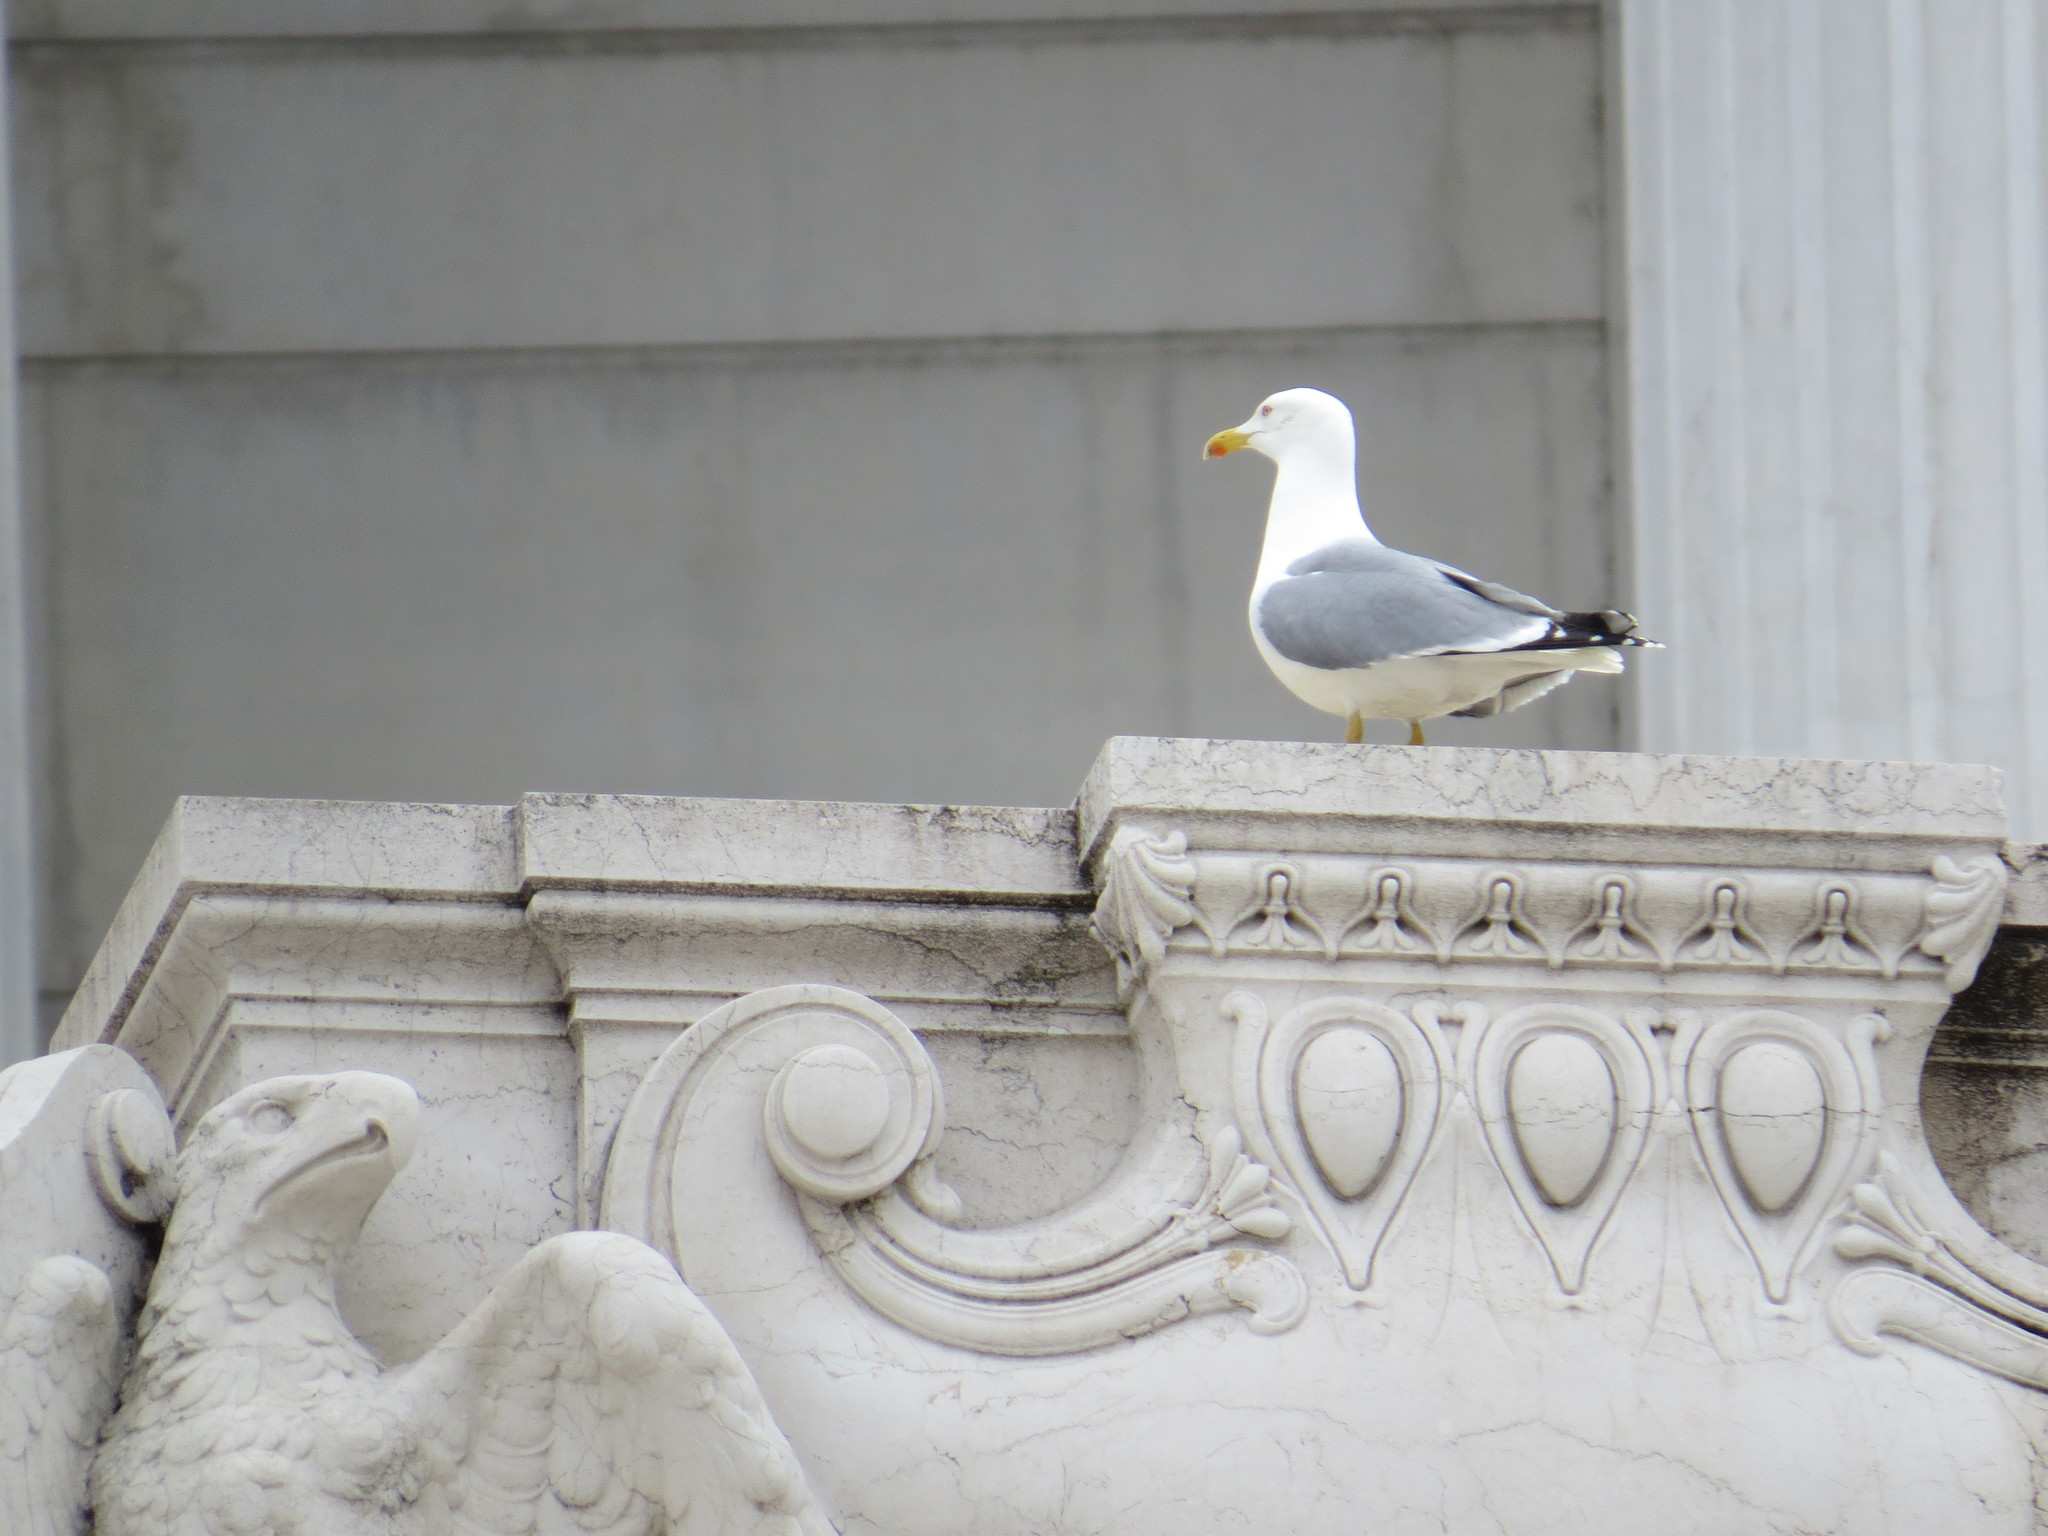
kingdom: Animalia
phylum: Chordata
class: Aves
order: Charadriiformes
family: Laridae
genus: Larus
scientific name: Larus michahellis
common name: Yellow-legged gull
